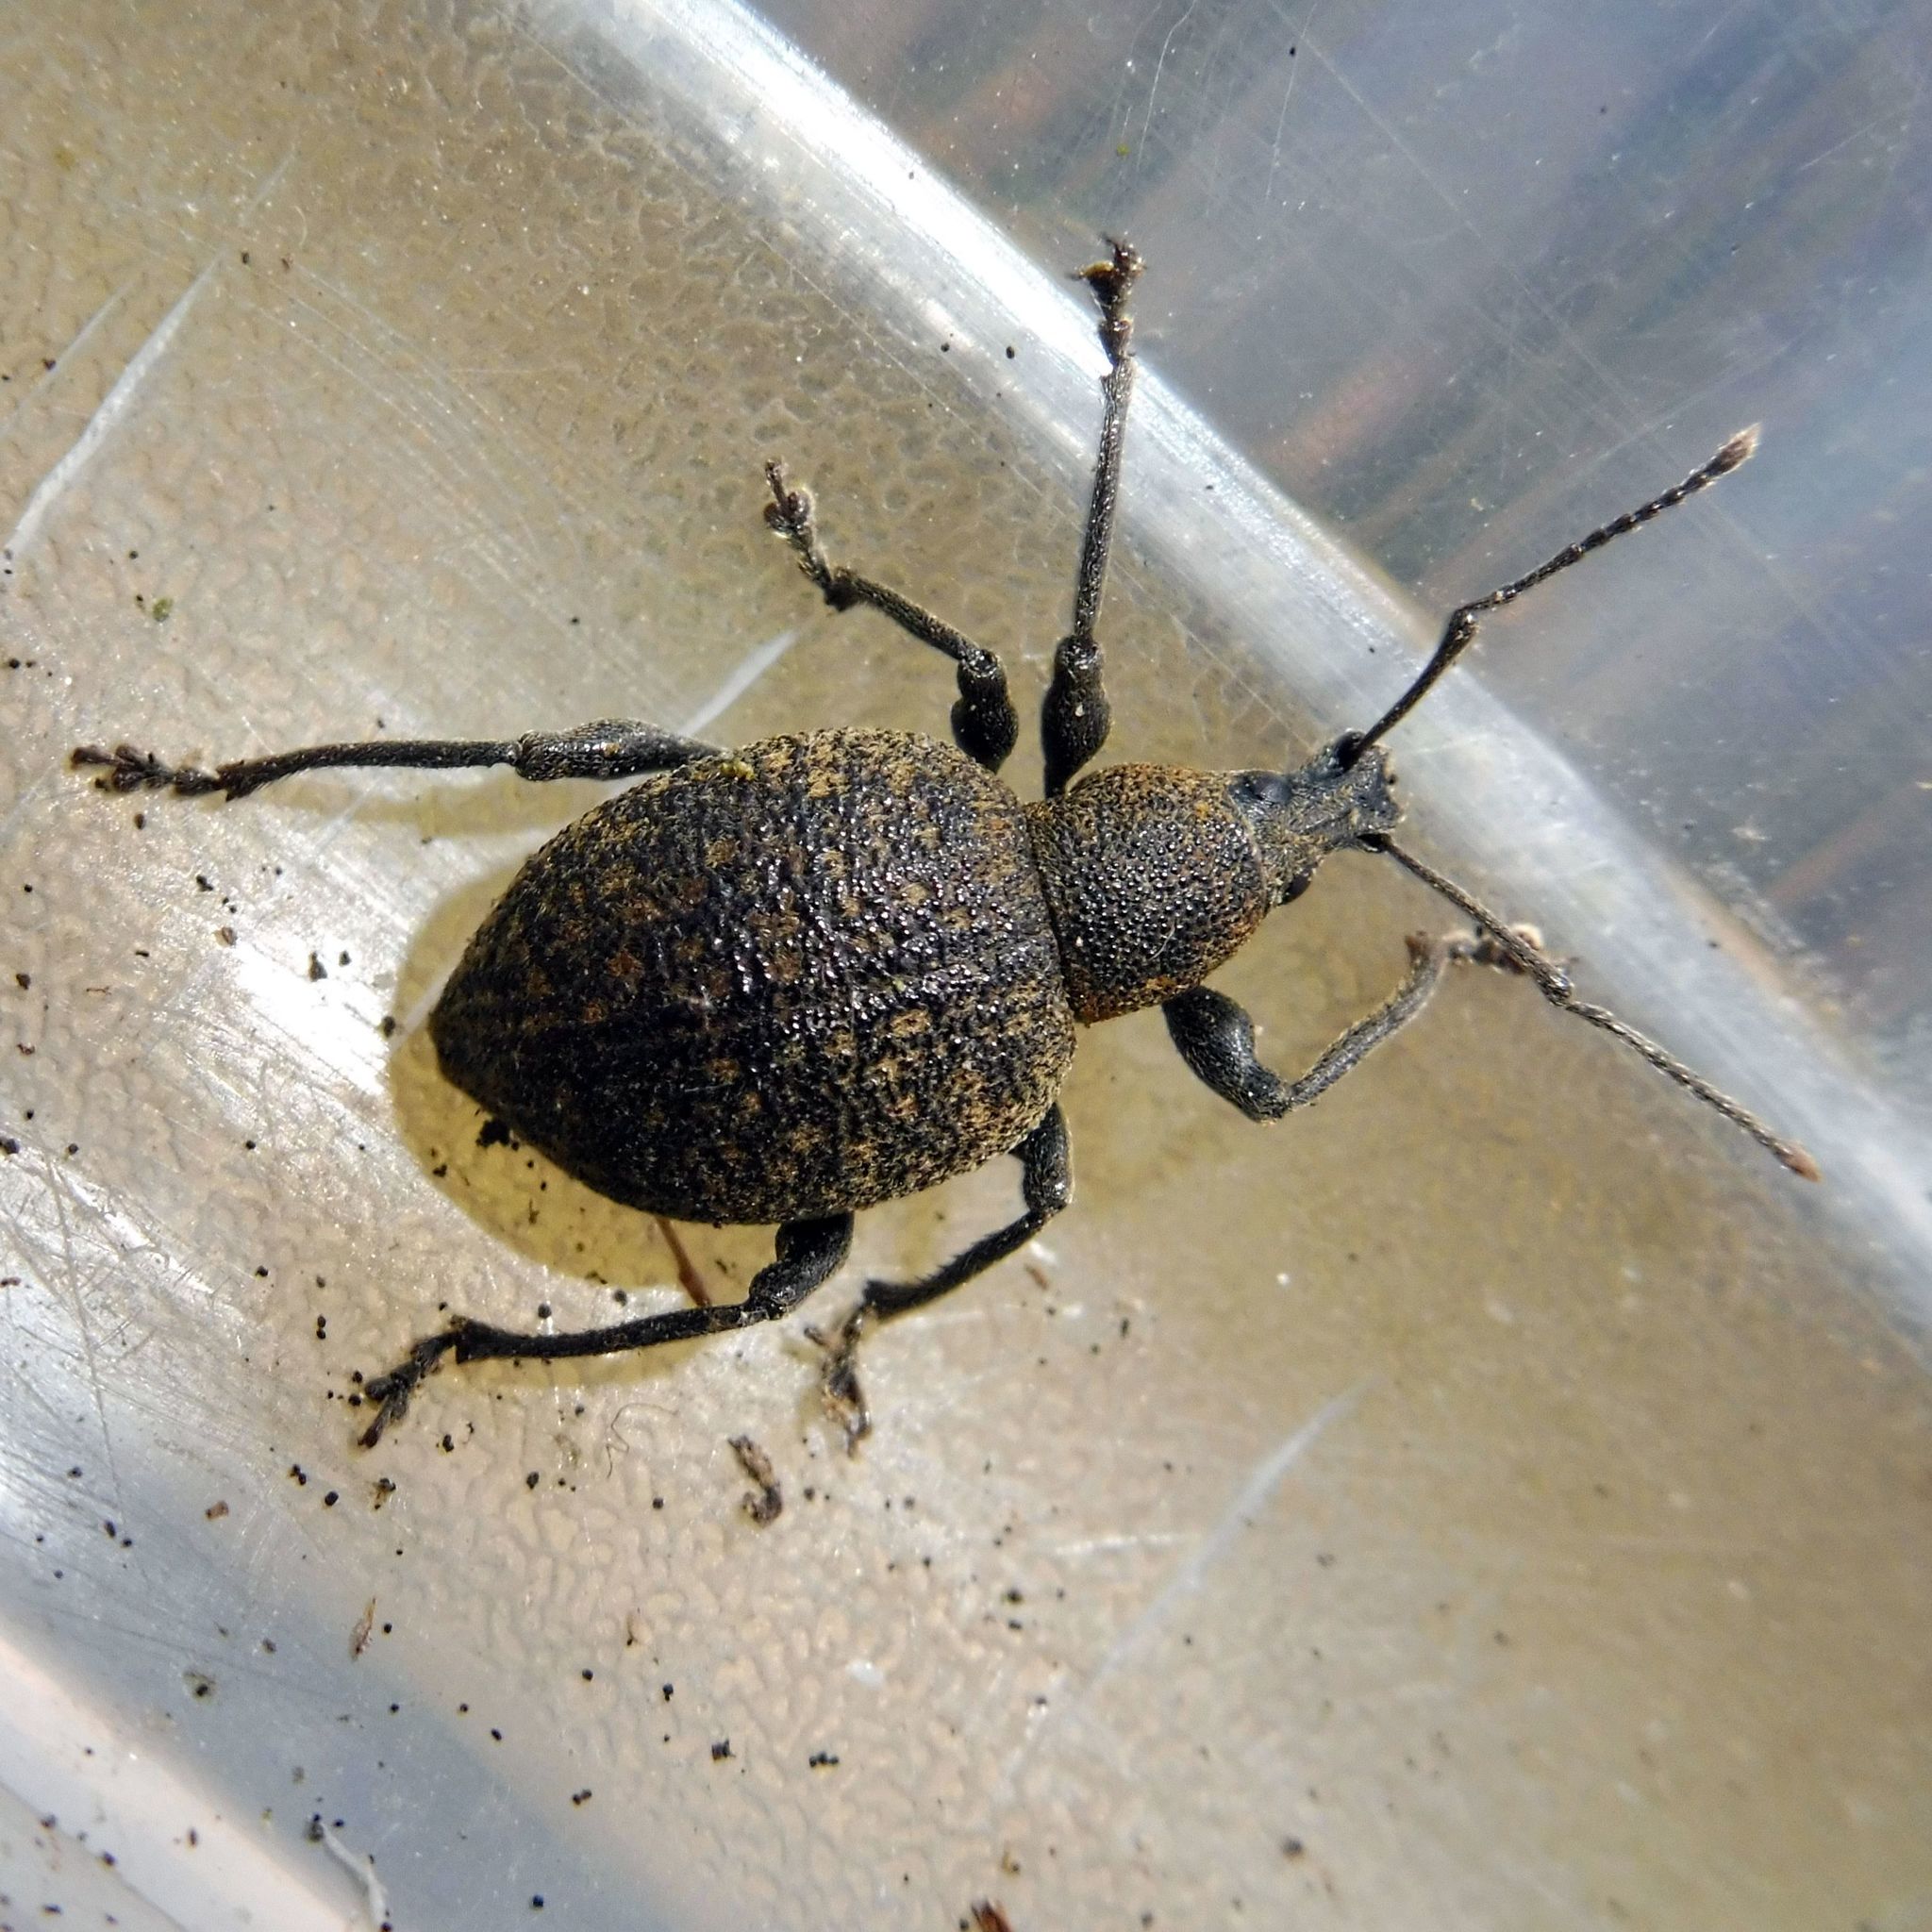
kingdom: Animalia
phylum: Arthropoda
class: Insecta
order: Coleoptera
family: Curculionidae
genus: Otiorhynchus
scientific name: Otiorhynchus armadillo
